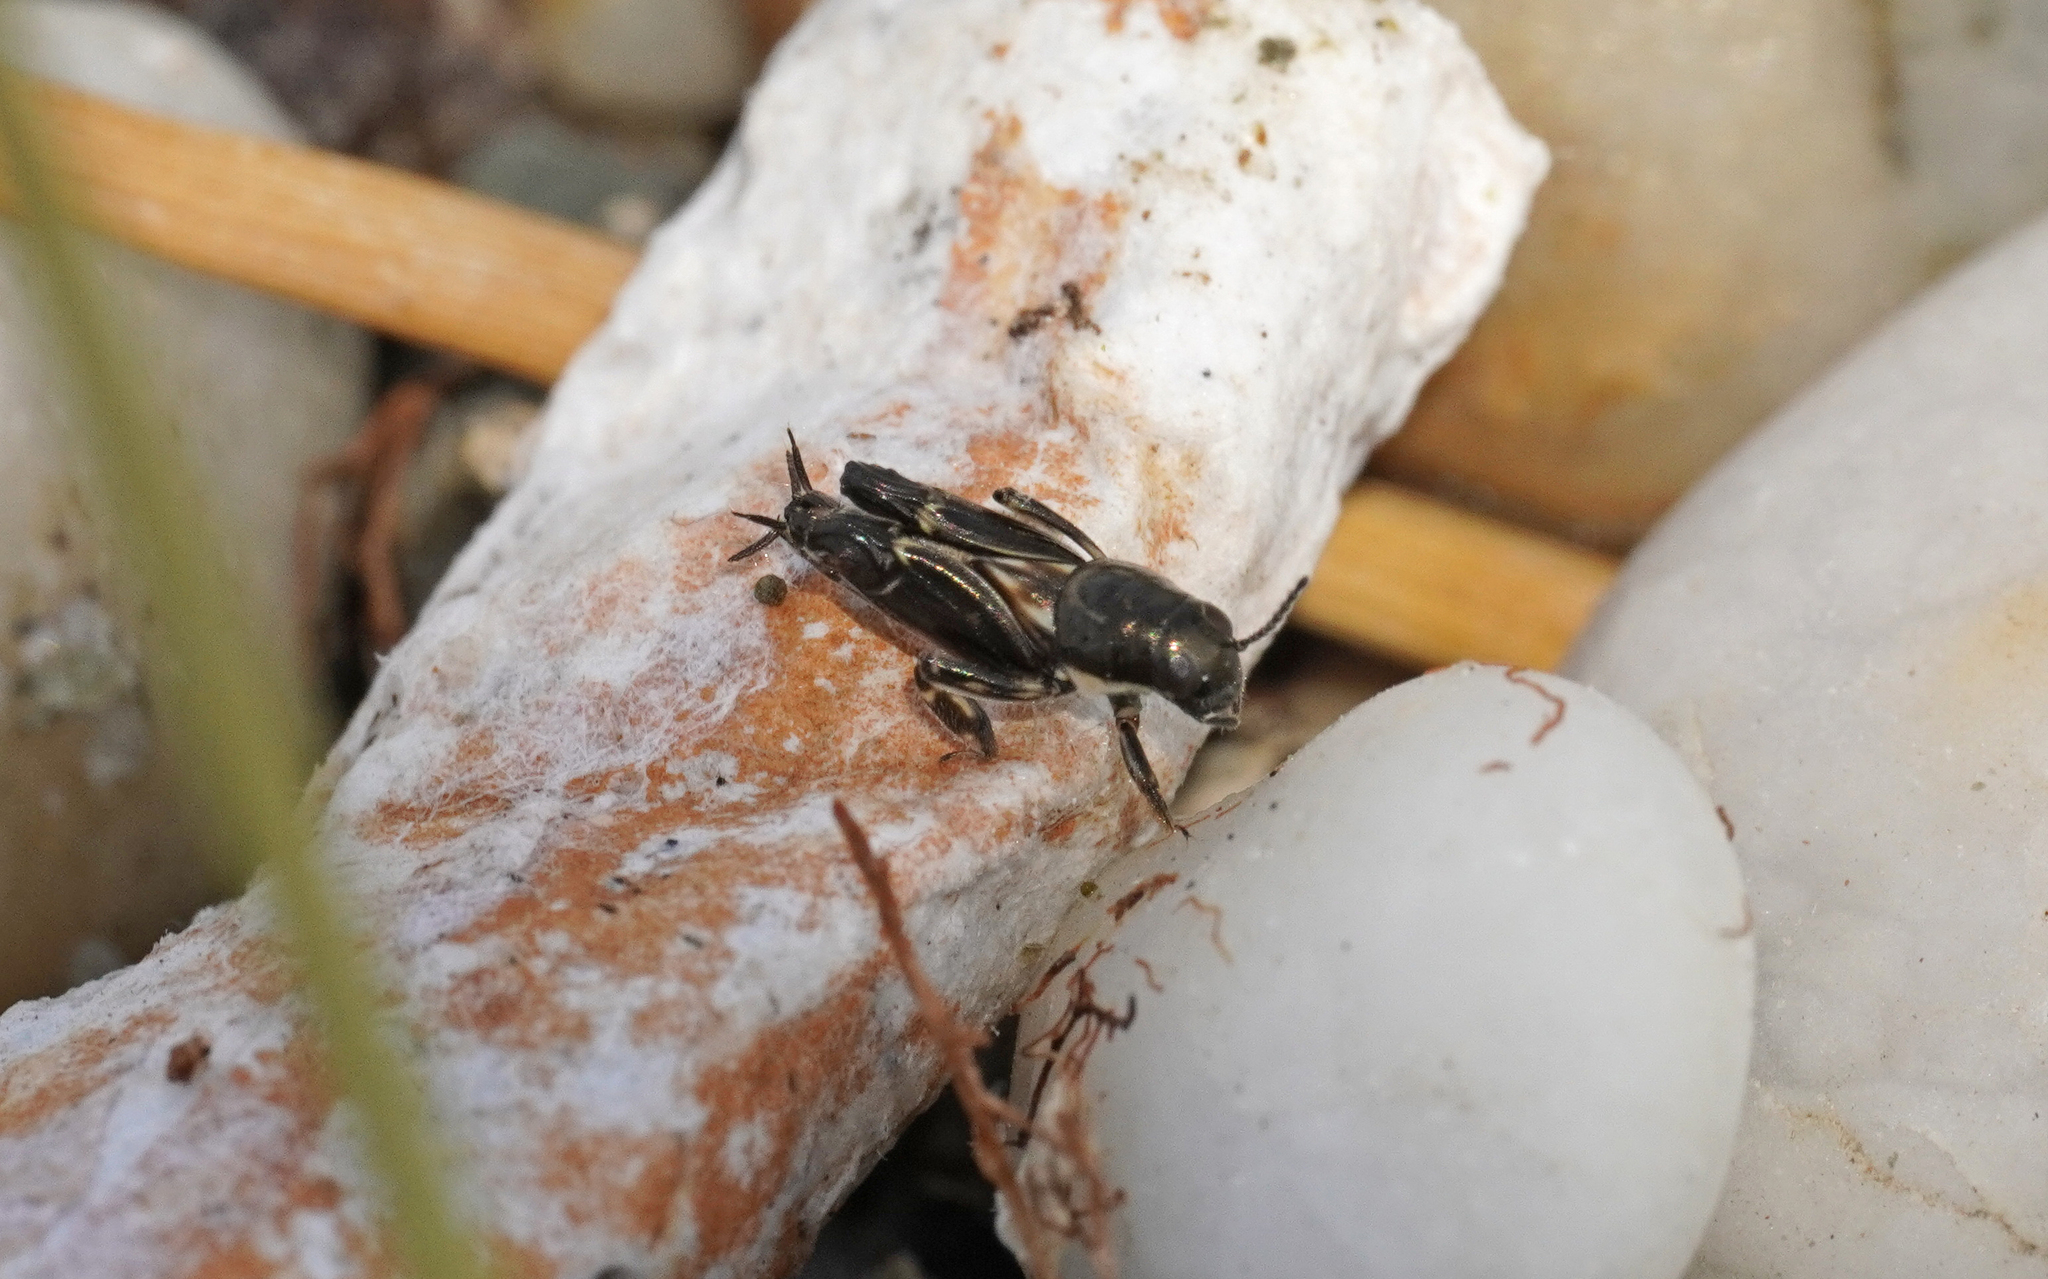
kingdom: Animalia
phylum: Arthropoda
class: Insecta
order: Orthoptera
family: Tridactylidae
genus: Xya
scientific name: Xya variegata
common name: Le tridactyle panaché
